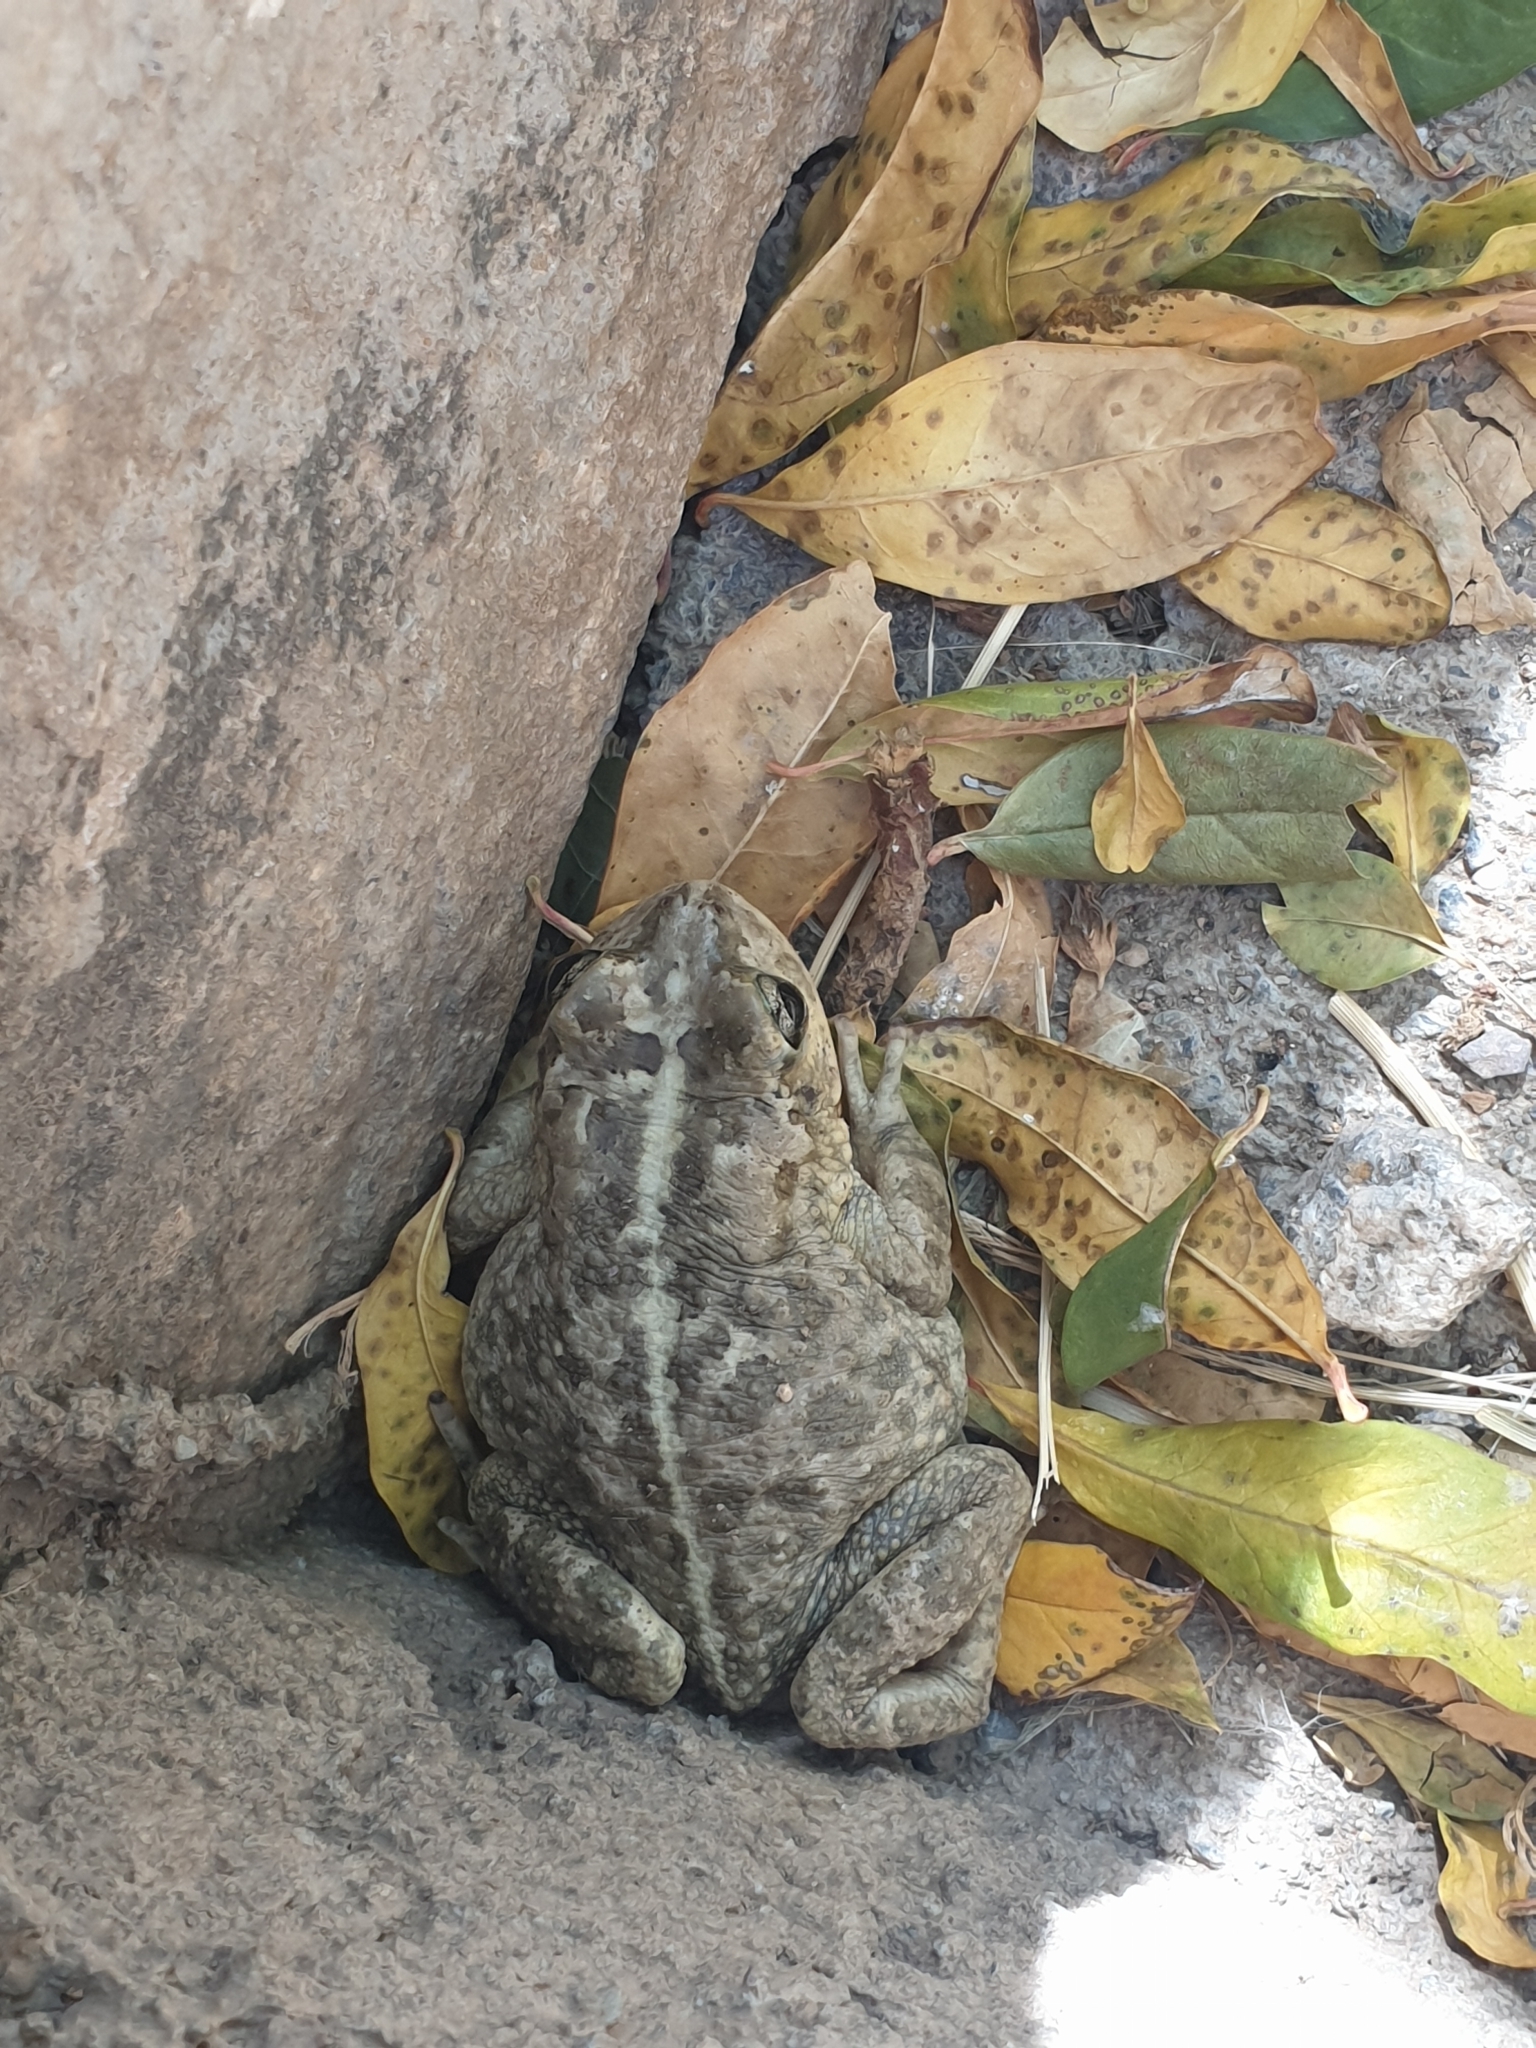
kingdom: Animalia
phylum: Chordata
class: Amphibia
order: Anura
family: Bufonidae
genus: Sclerophrys
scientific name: Sclerophrys arabica
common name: Arabian toad
